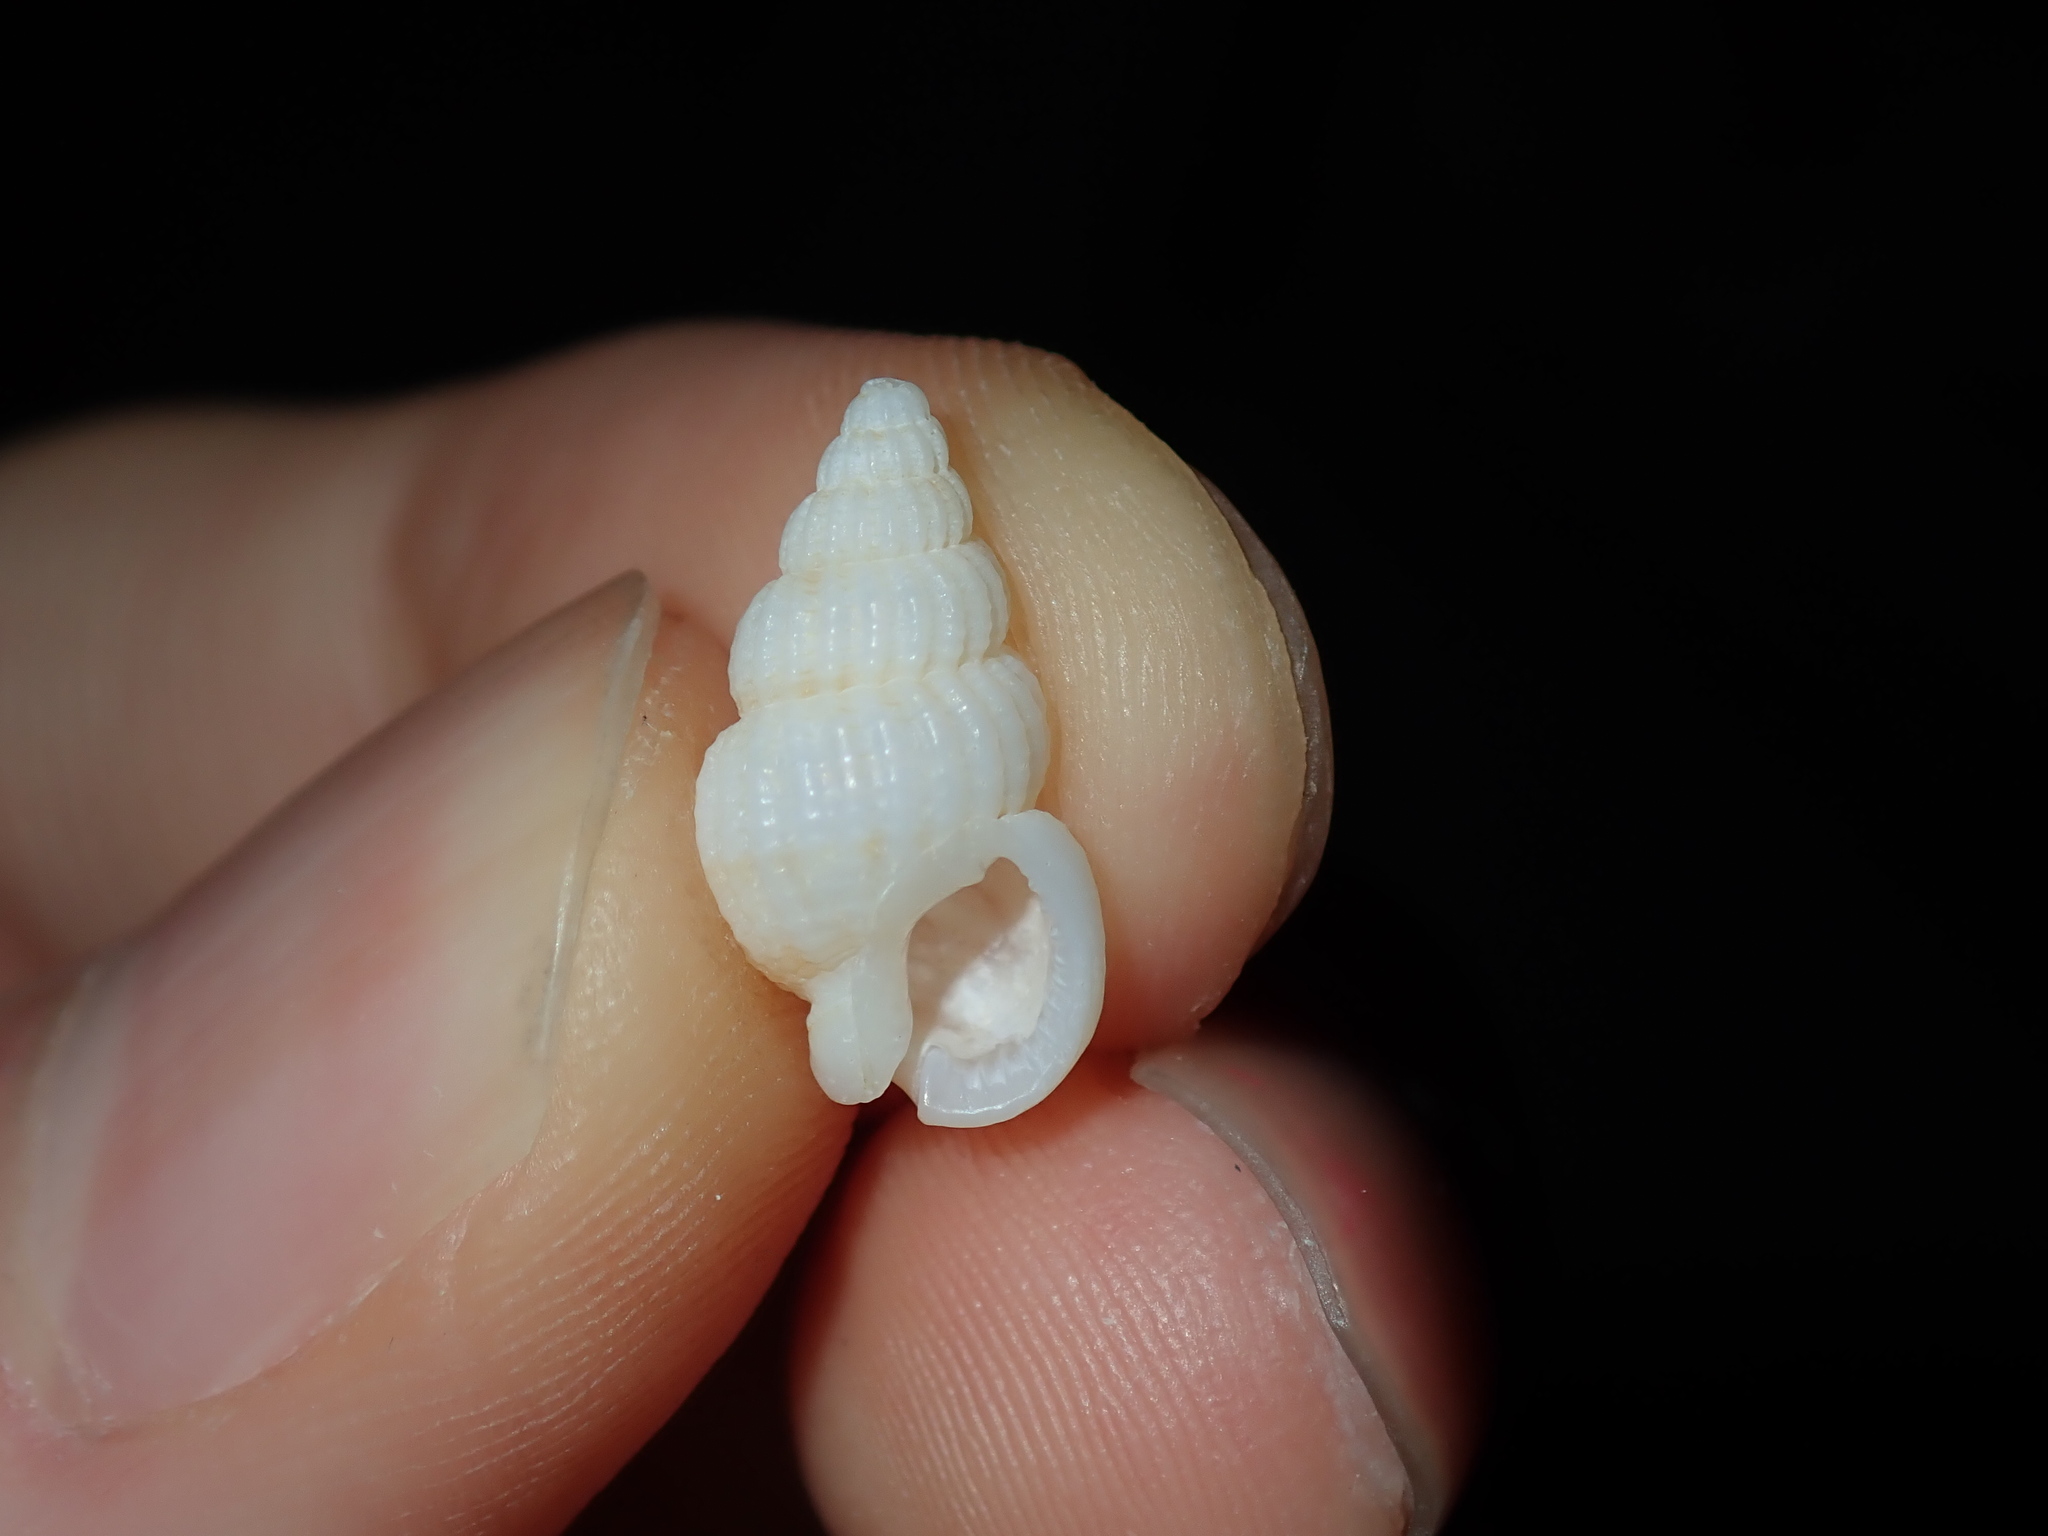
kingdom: Animalia
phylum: Mollusca
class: Gastropoda
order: Neogastropoda
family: Nassariidae
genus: Reticunassa
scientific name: Reticunassa paupera
